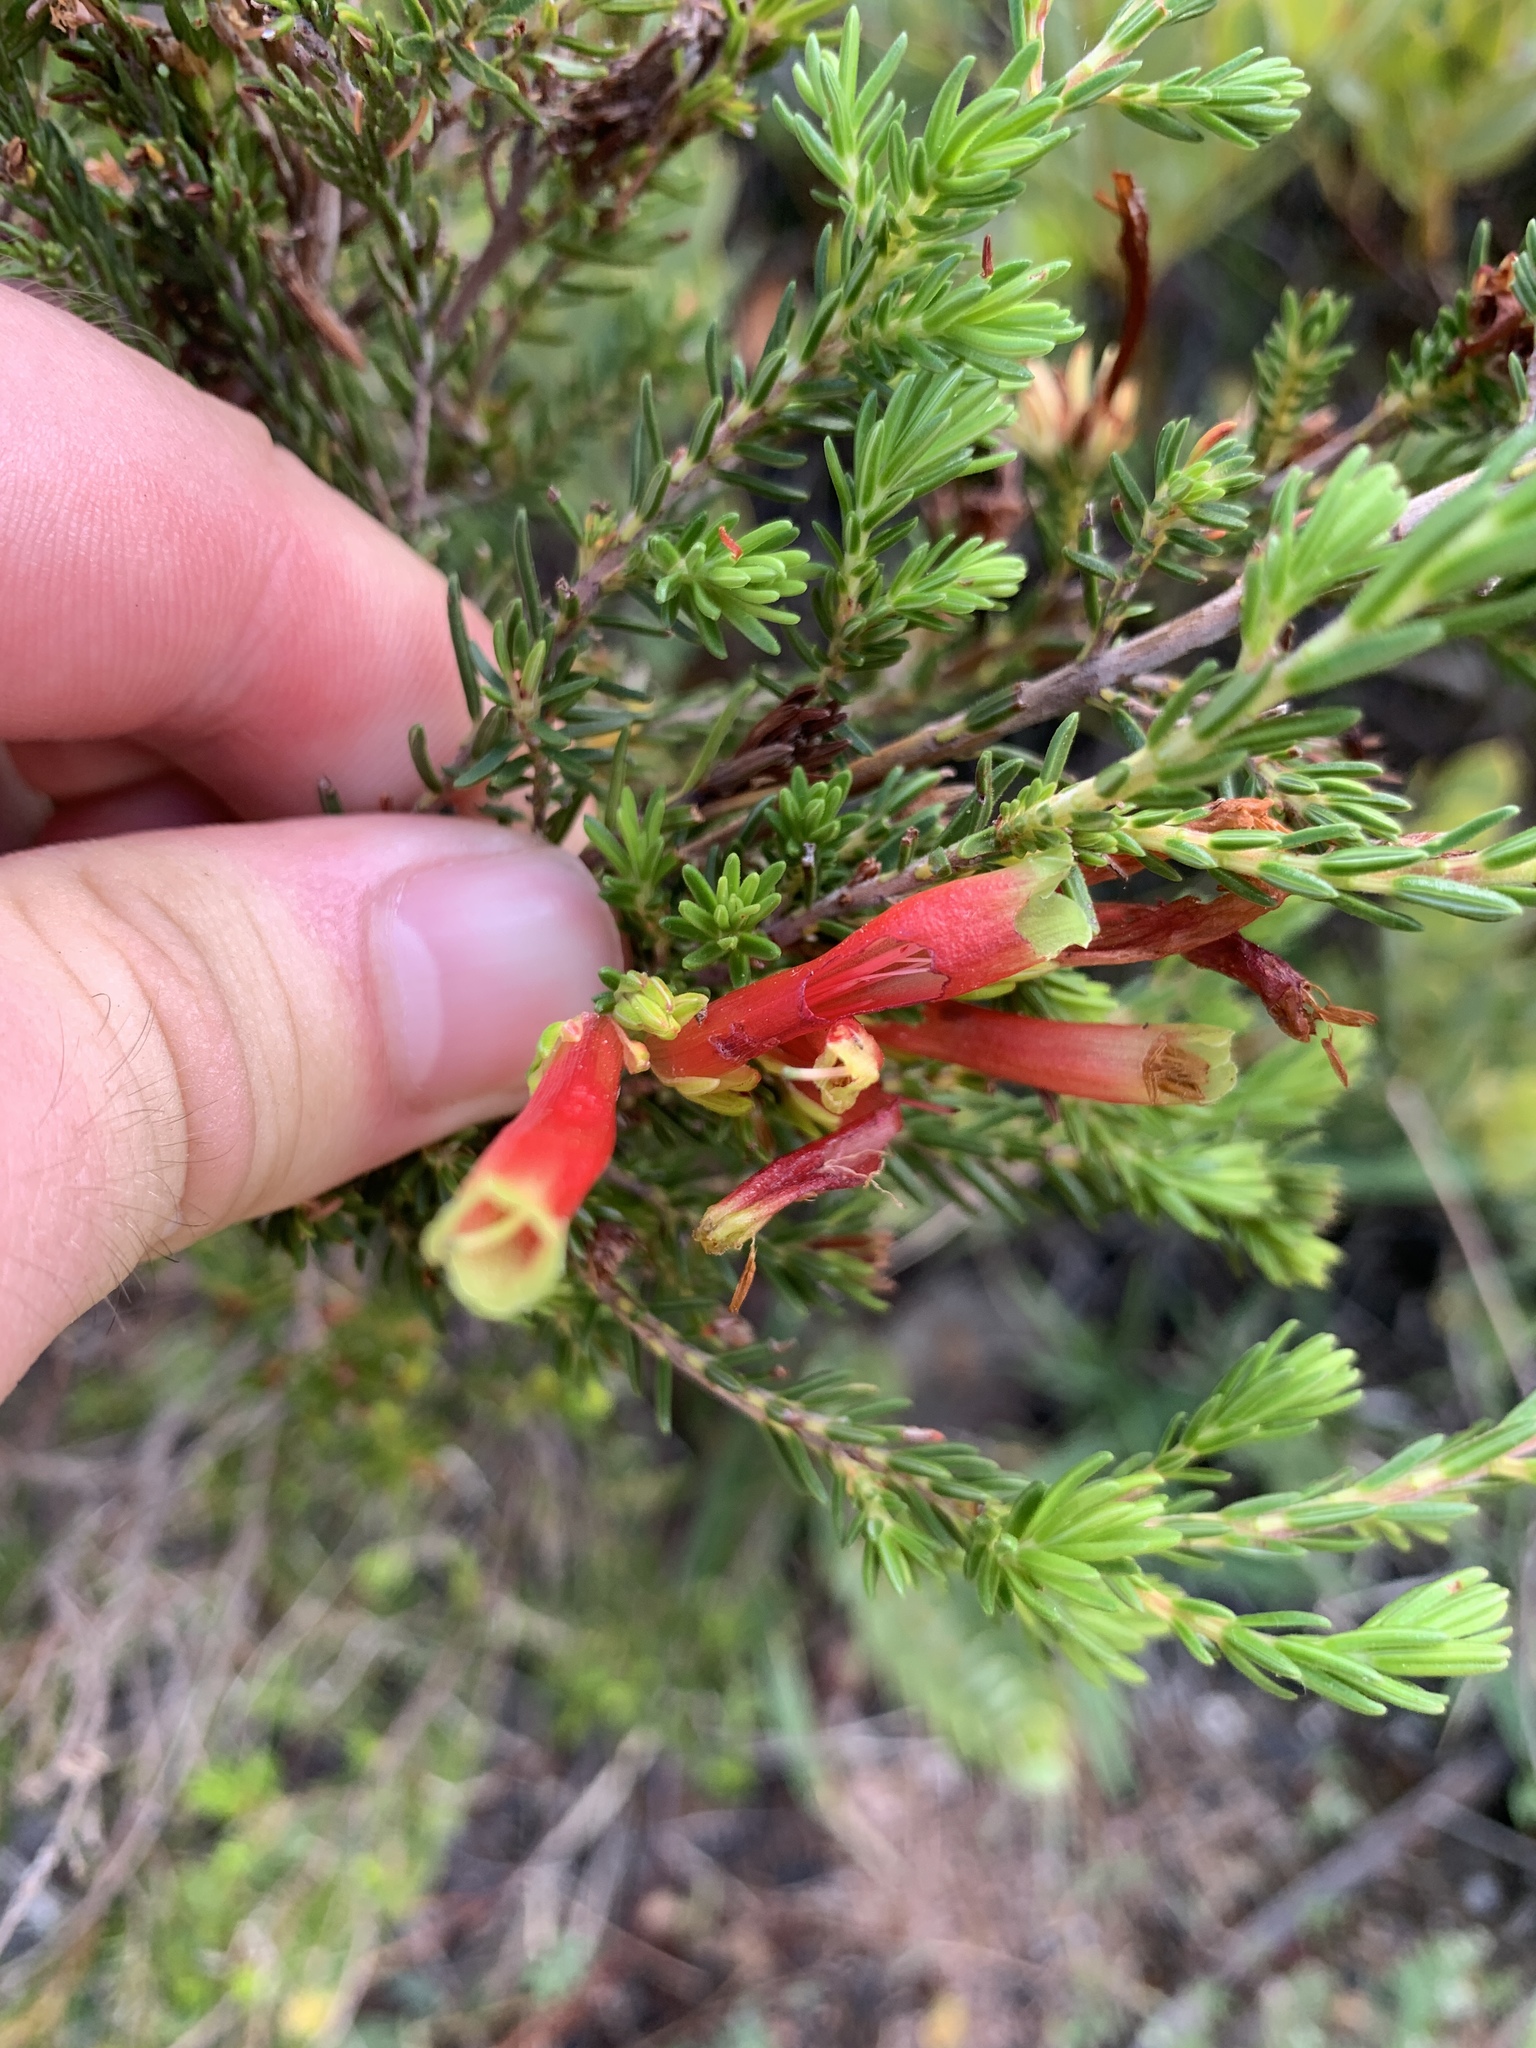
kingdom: Plantae
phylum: Tracheophyta
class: Magnoliopsida
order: Ericales
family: Ericaceae
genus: Erica
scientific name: Erica discolor
